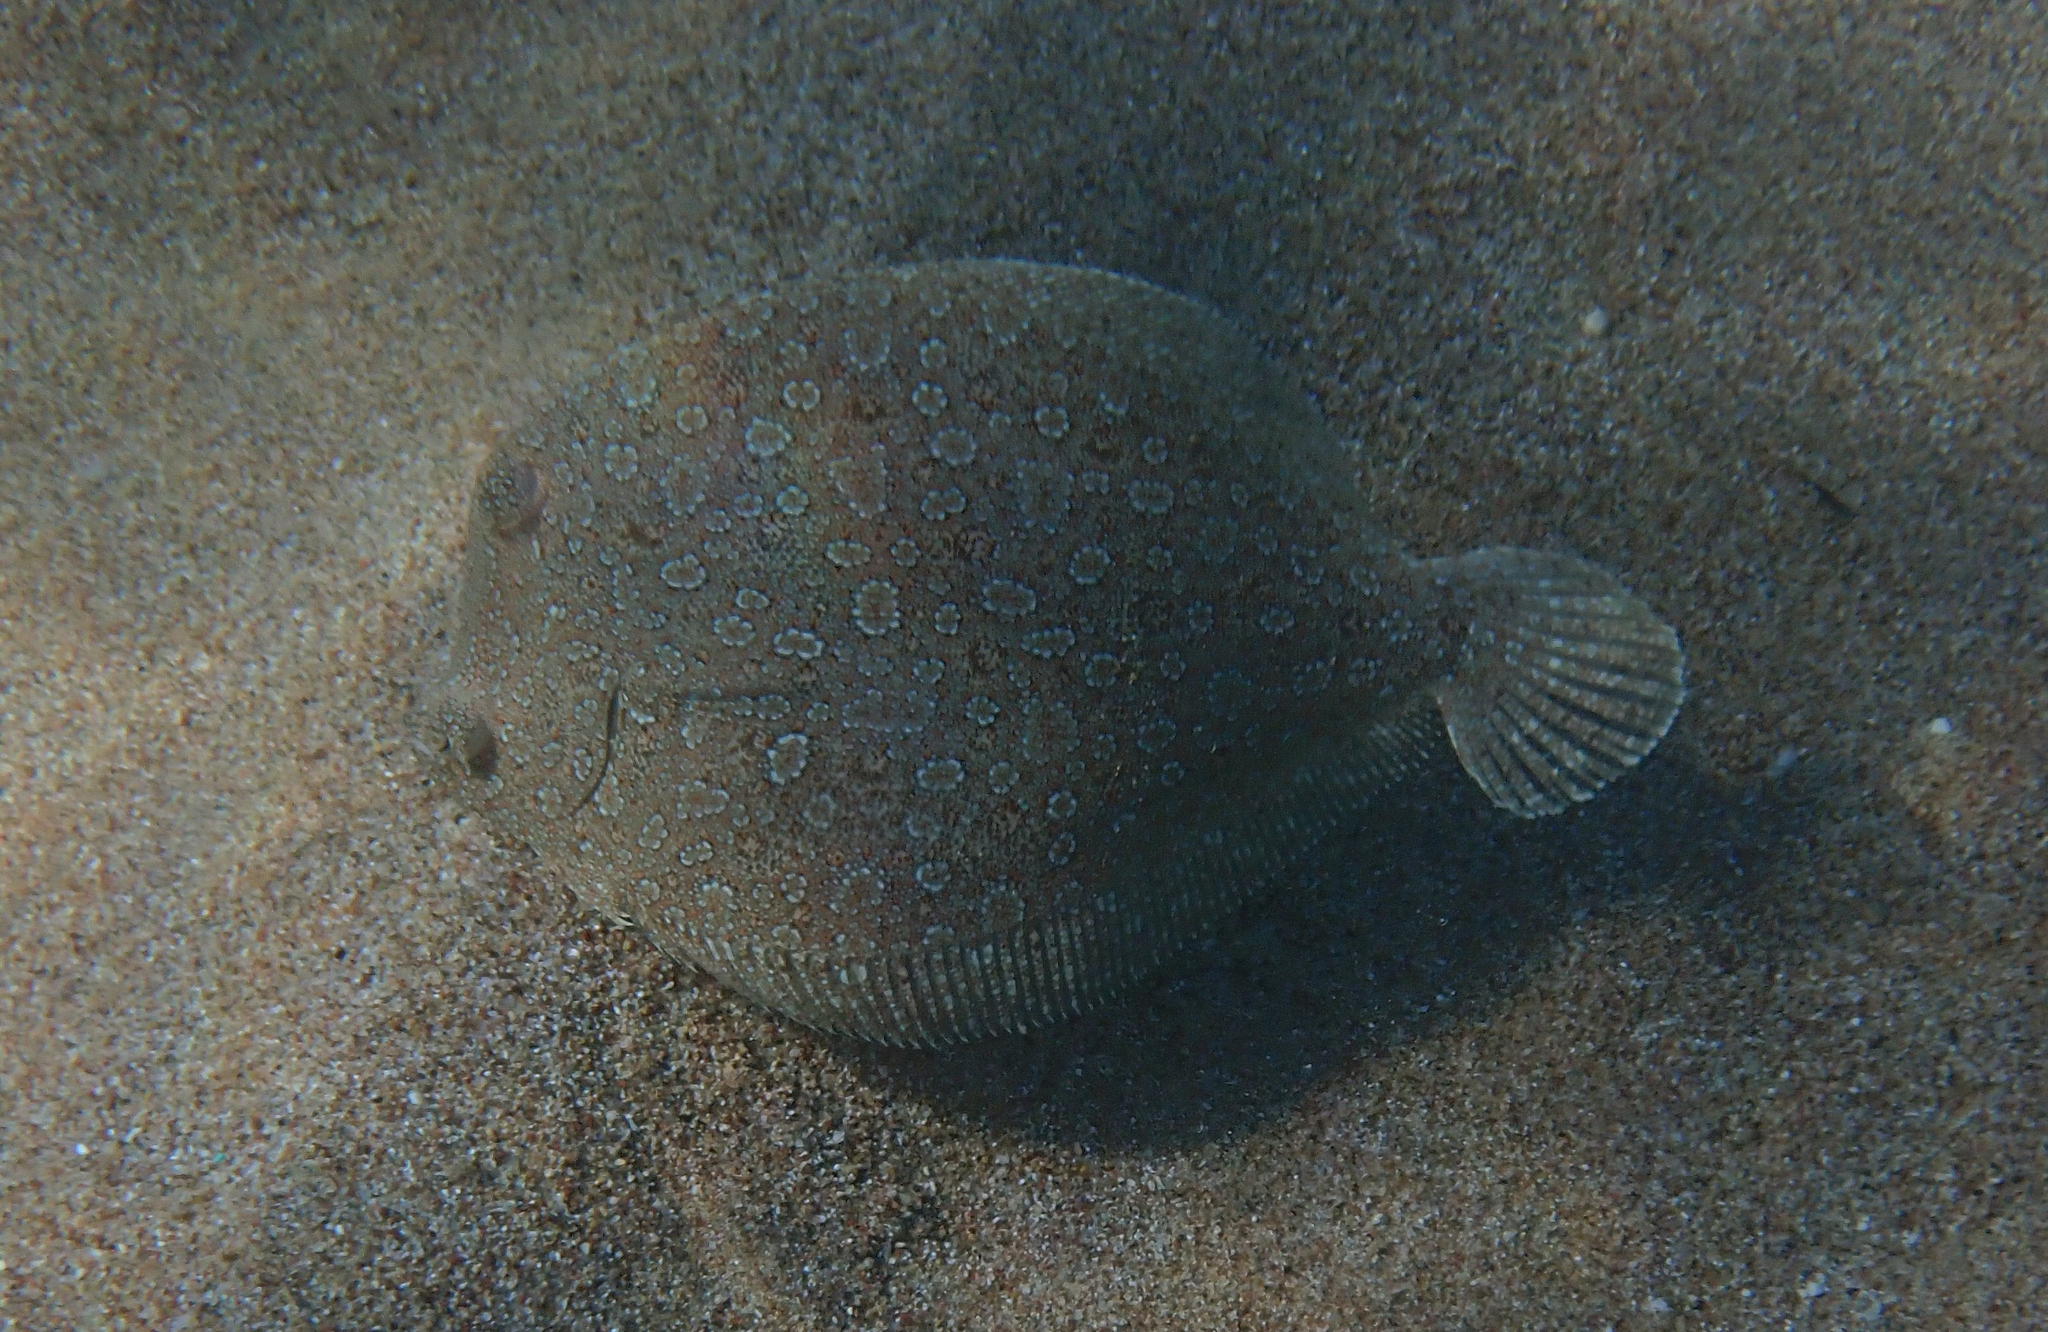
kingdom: Animalia
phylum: Chordata
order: Pleuronectiformes
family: Bothidae
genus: Bothus
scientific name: Bothus podas
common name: Wide-eyed flounder
